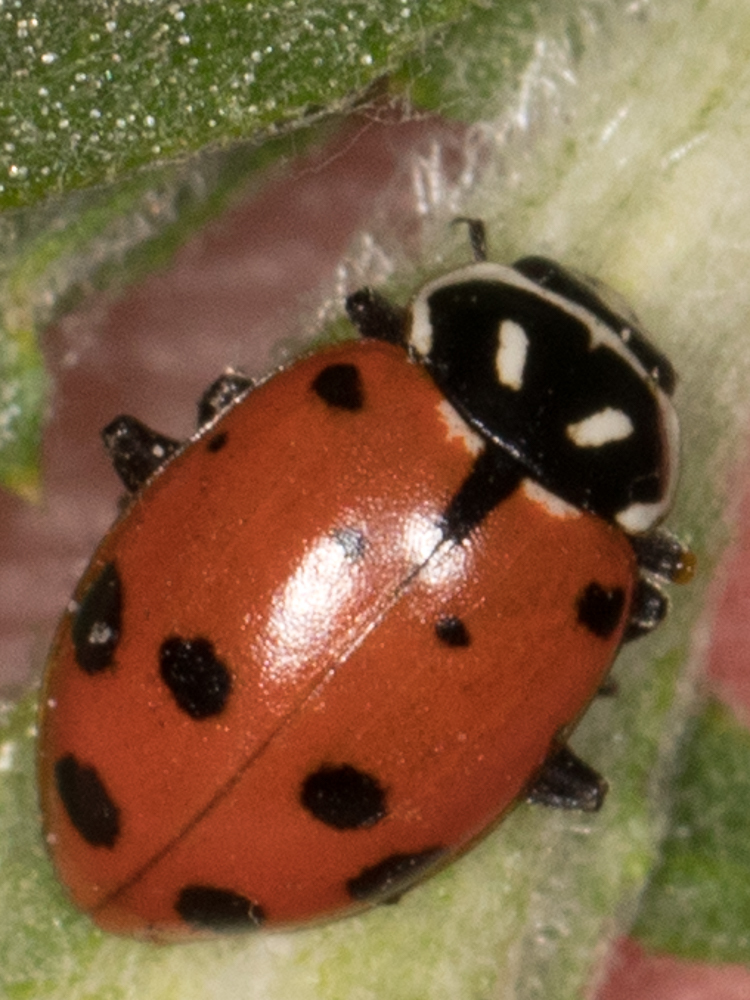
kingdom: Animalia
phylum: Arthropoda
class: Insecta
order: Coleoptera
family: Coccinellidae
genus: Hippodamia
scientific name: Hippodamia convergens
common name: Convergent lady beetle
